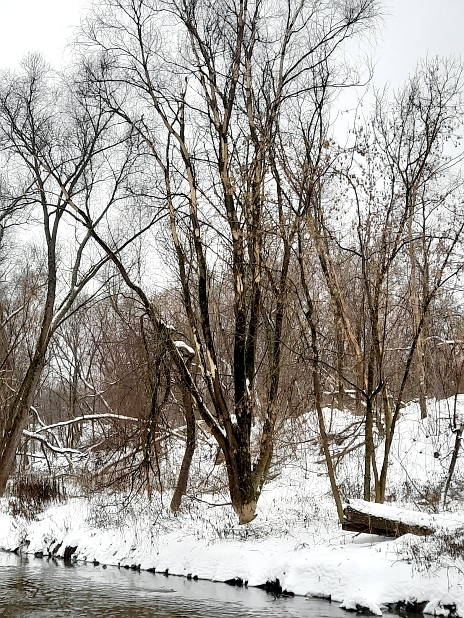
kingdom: Animalia
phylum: Chordata
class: Mammalia
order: Rodentia
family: Castoridae
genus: Castor
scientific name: Castor fiber
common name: Eurasian beaver
